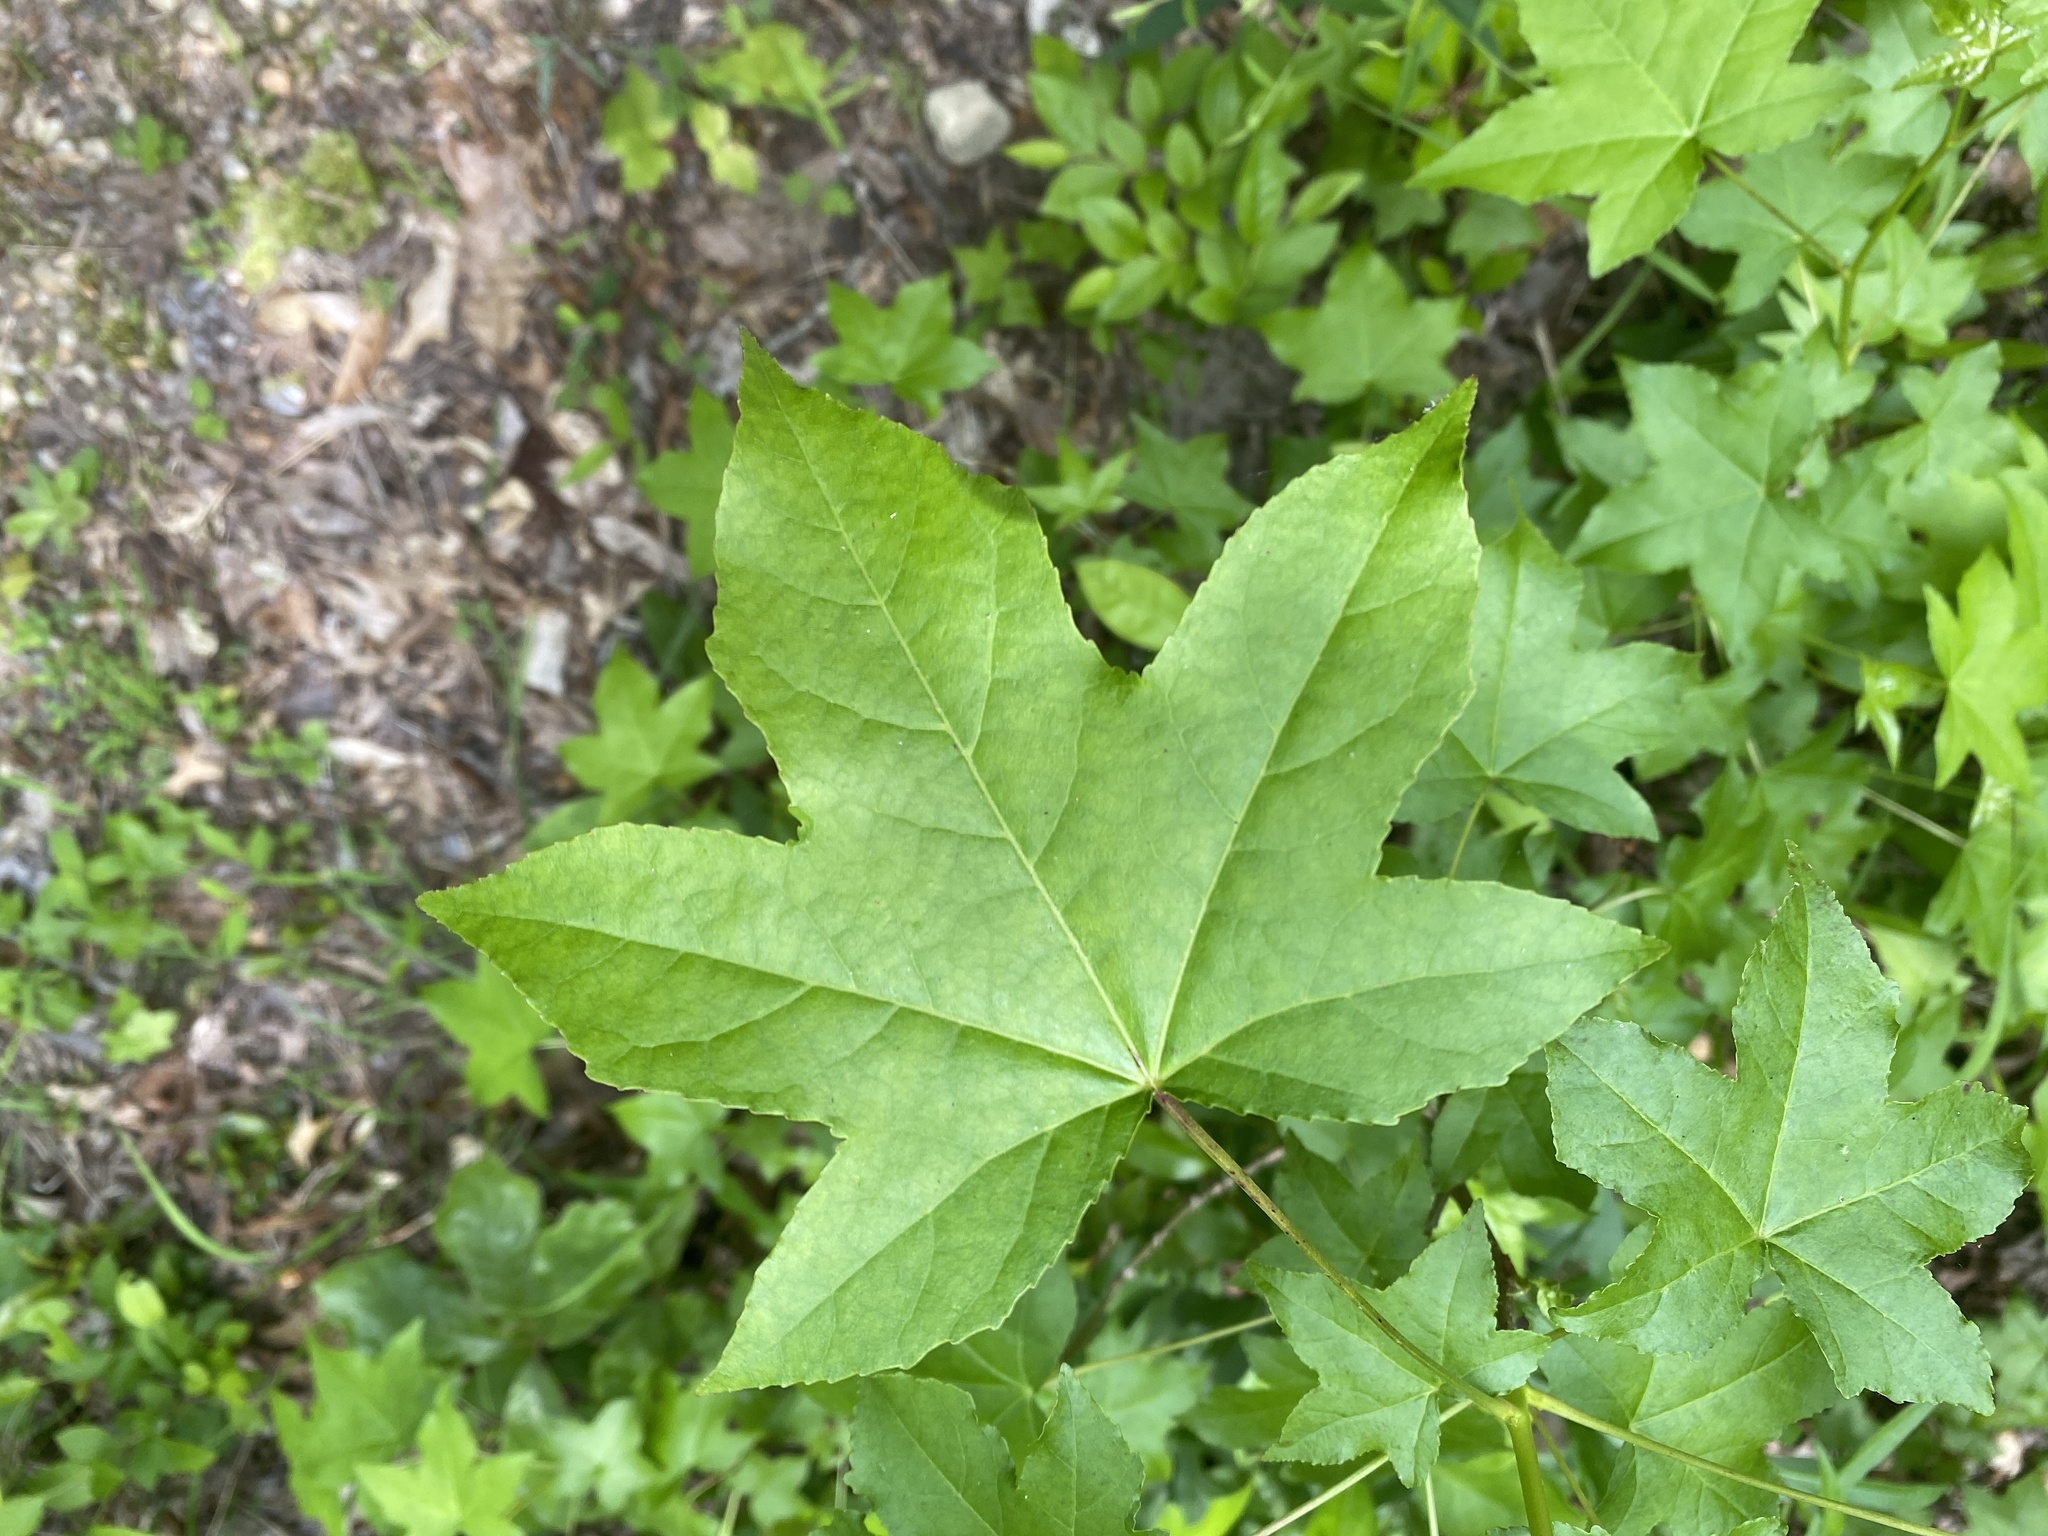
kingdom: Plantae
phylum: Tracheophyta
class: Magnoliopsida
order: Saxifragales
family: Altingiaceae
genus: Liquidambar
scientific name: Liquidambar styraciflua
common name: Sweet gum
